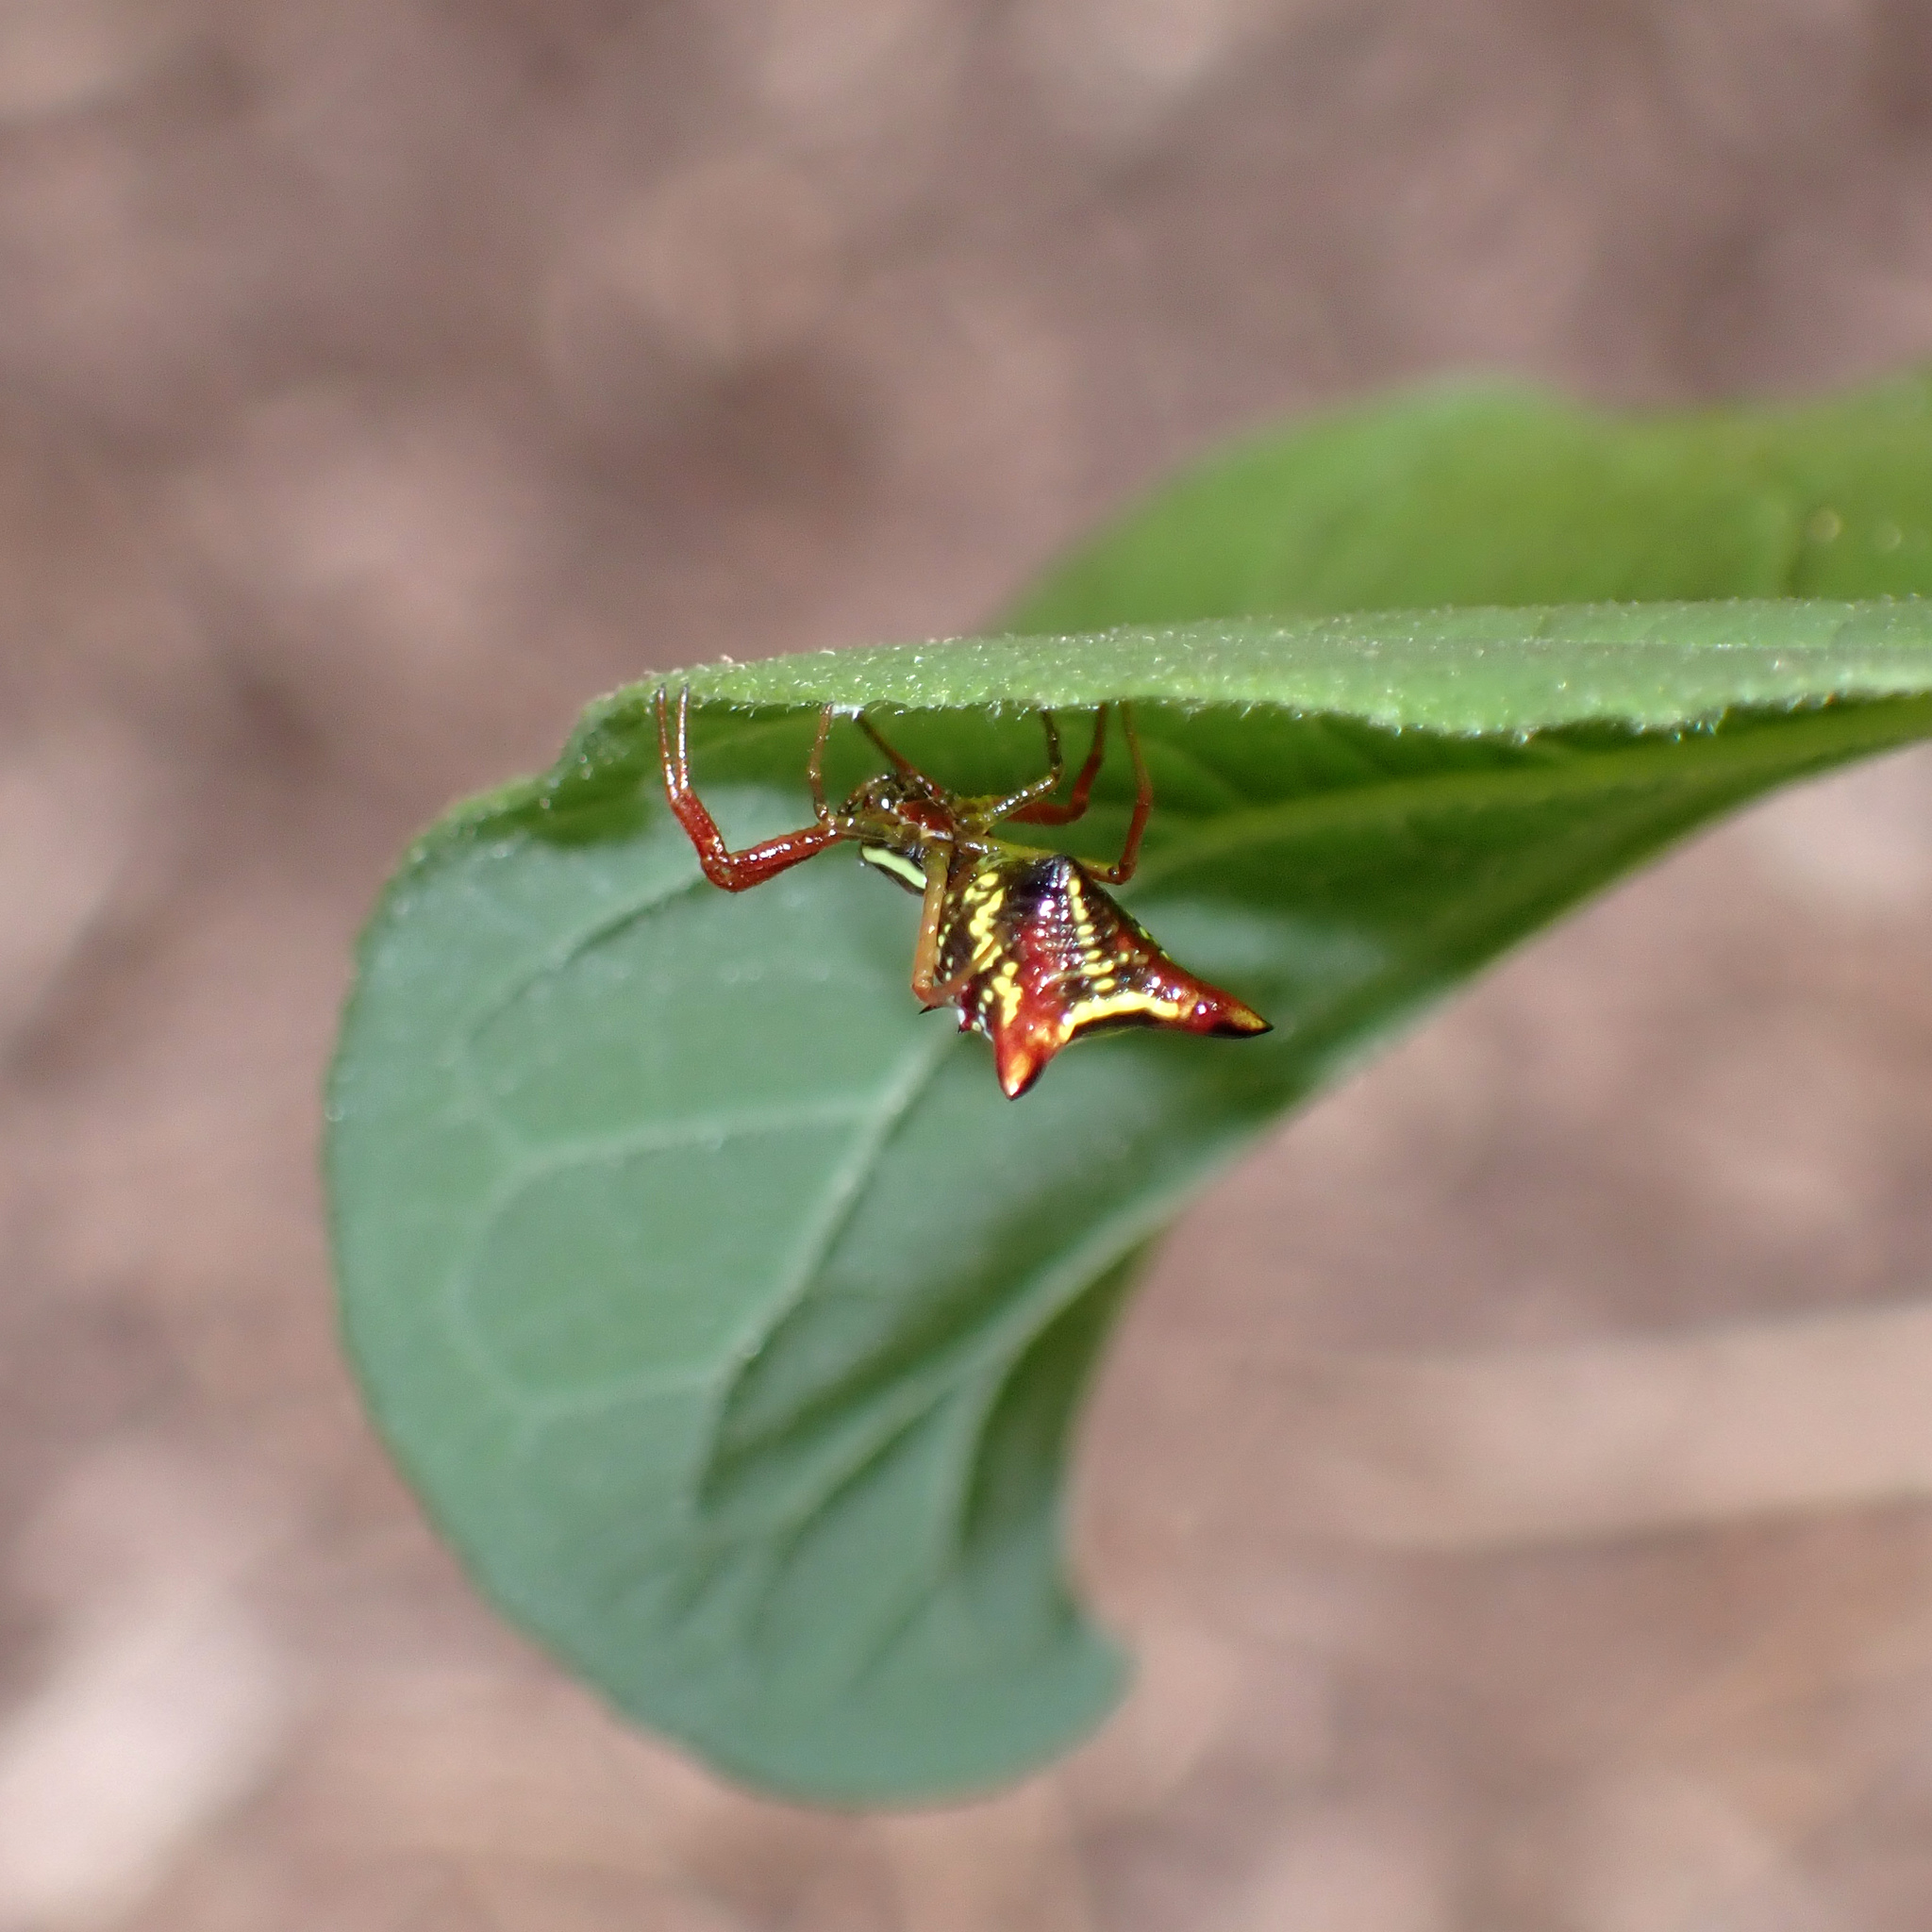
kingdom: Animalia
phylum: Arthropoda
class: Arachnida
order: Araneae
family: Araneidae
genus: Micrathena
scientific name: Micrathena sagittata
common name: Orb weavers
